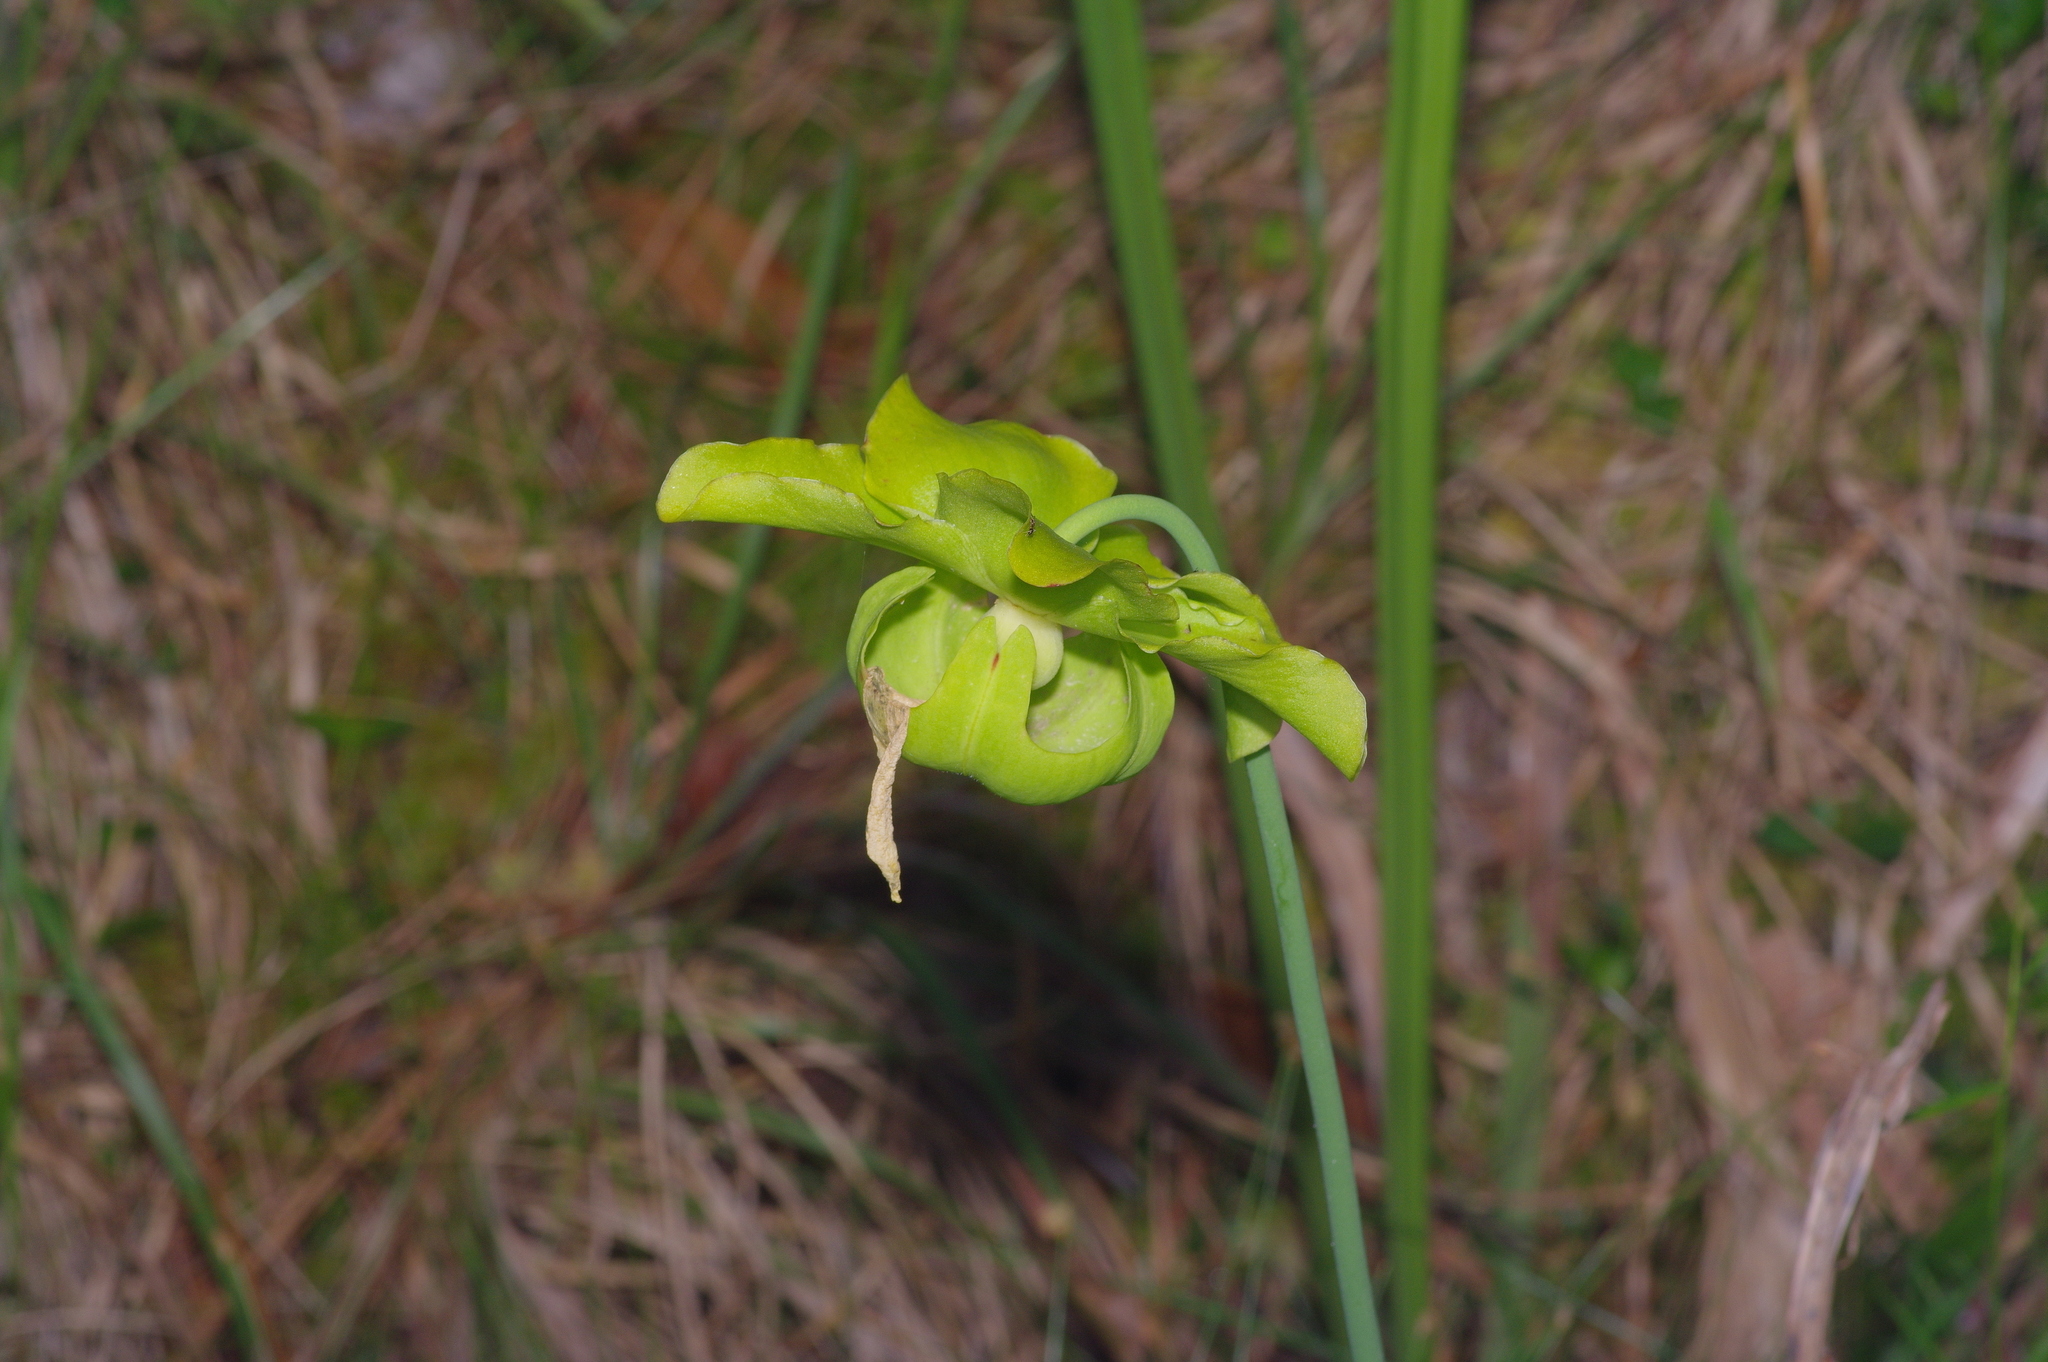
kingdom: Plantae
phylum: Tracheophyta
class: Magnoliopsida
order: Ericales
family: Sarraceniaceae
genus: Sarracenia
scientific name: Sarracenia alata
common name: Yellow trumpets
